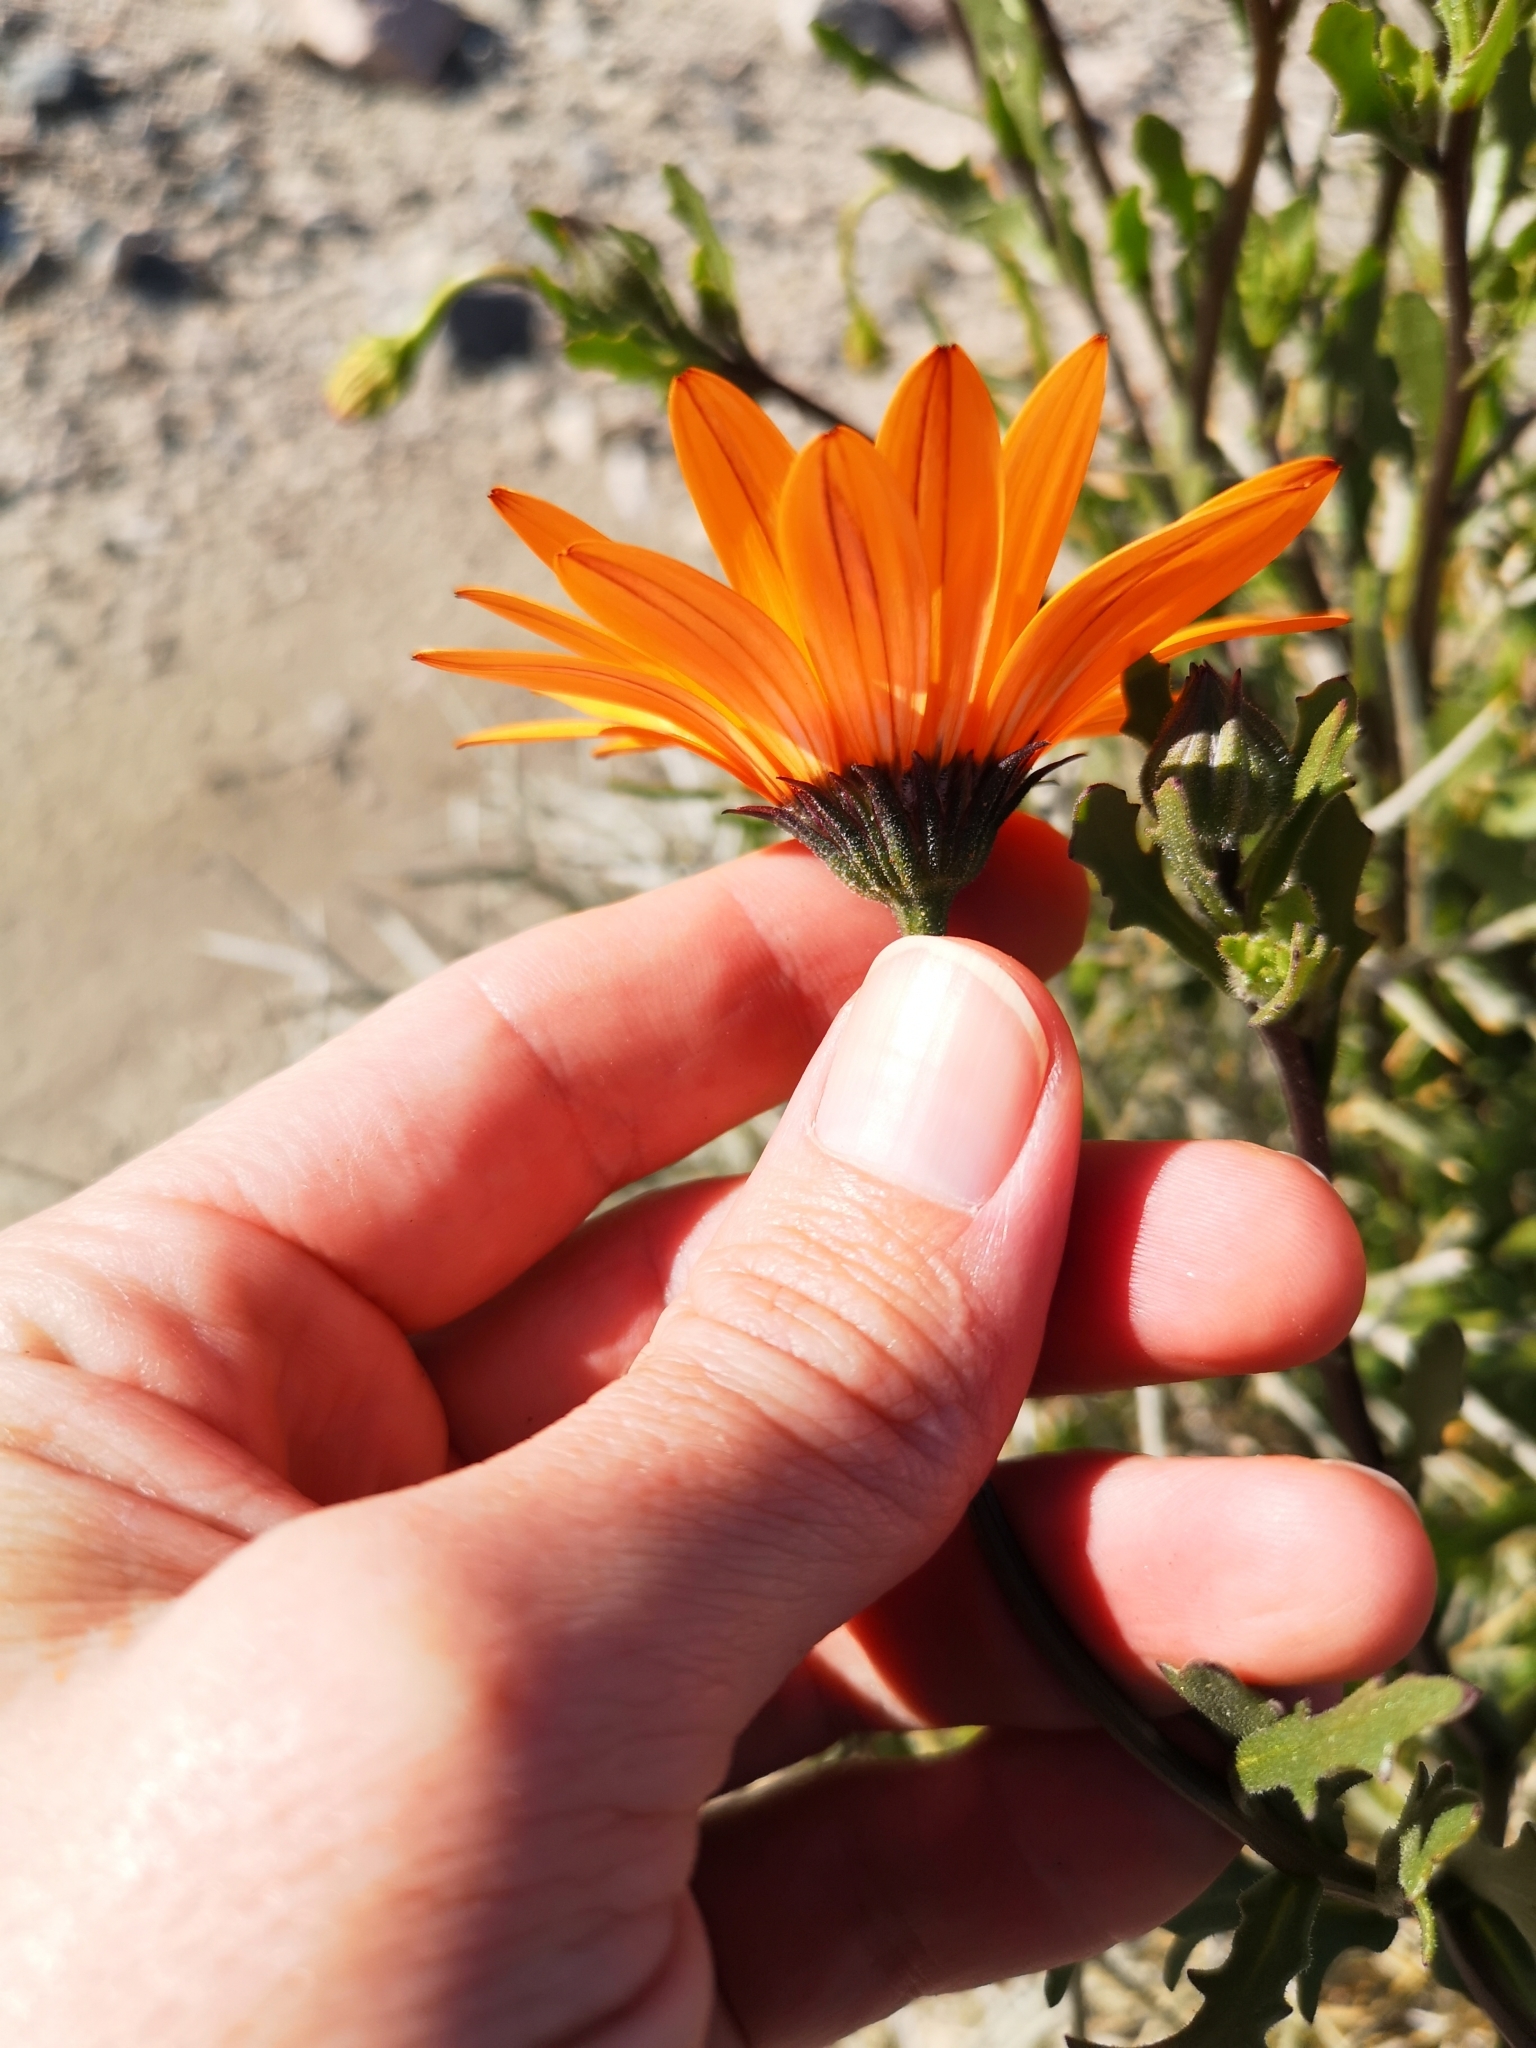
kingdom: Plantae
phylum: Tracheophyta
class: Magnoliopsida
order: Asterales
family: Asteraceae
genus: Dimorphotheca
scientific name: Dimorphotheca sinuata
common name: Glandular cape marigold
